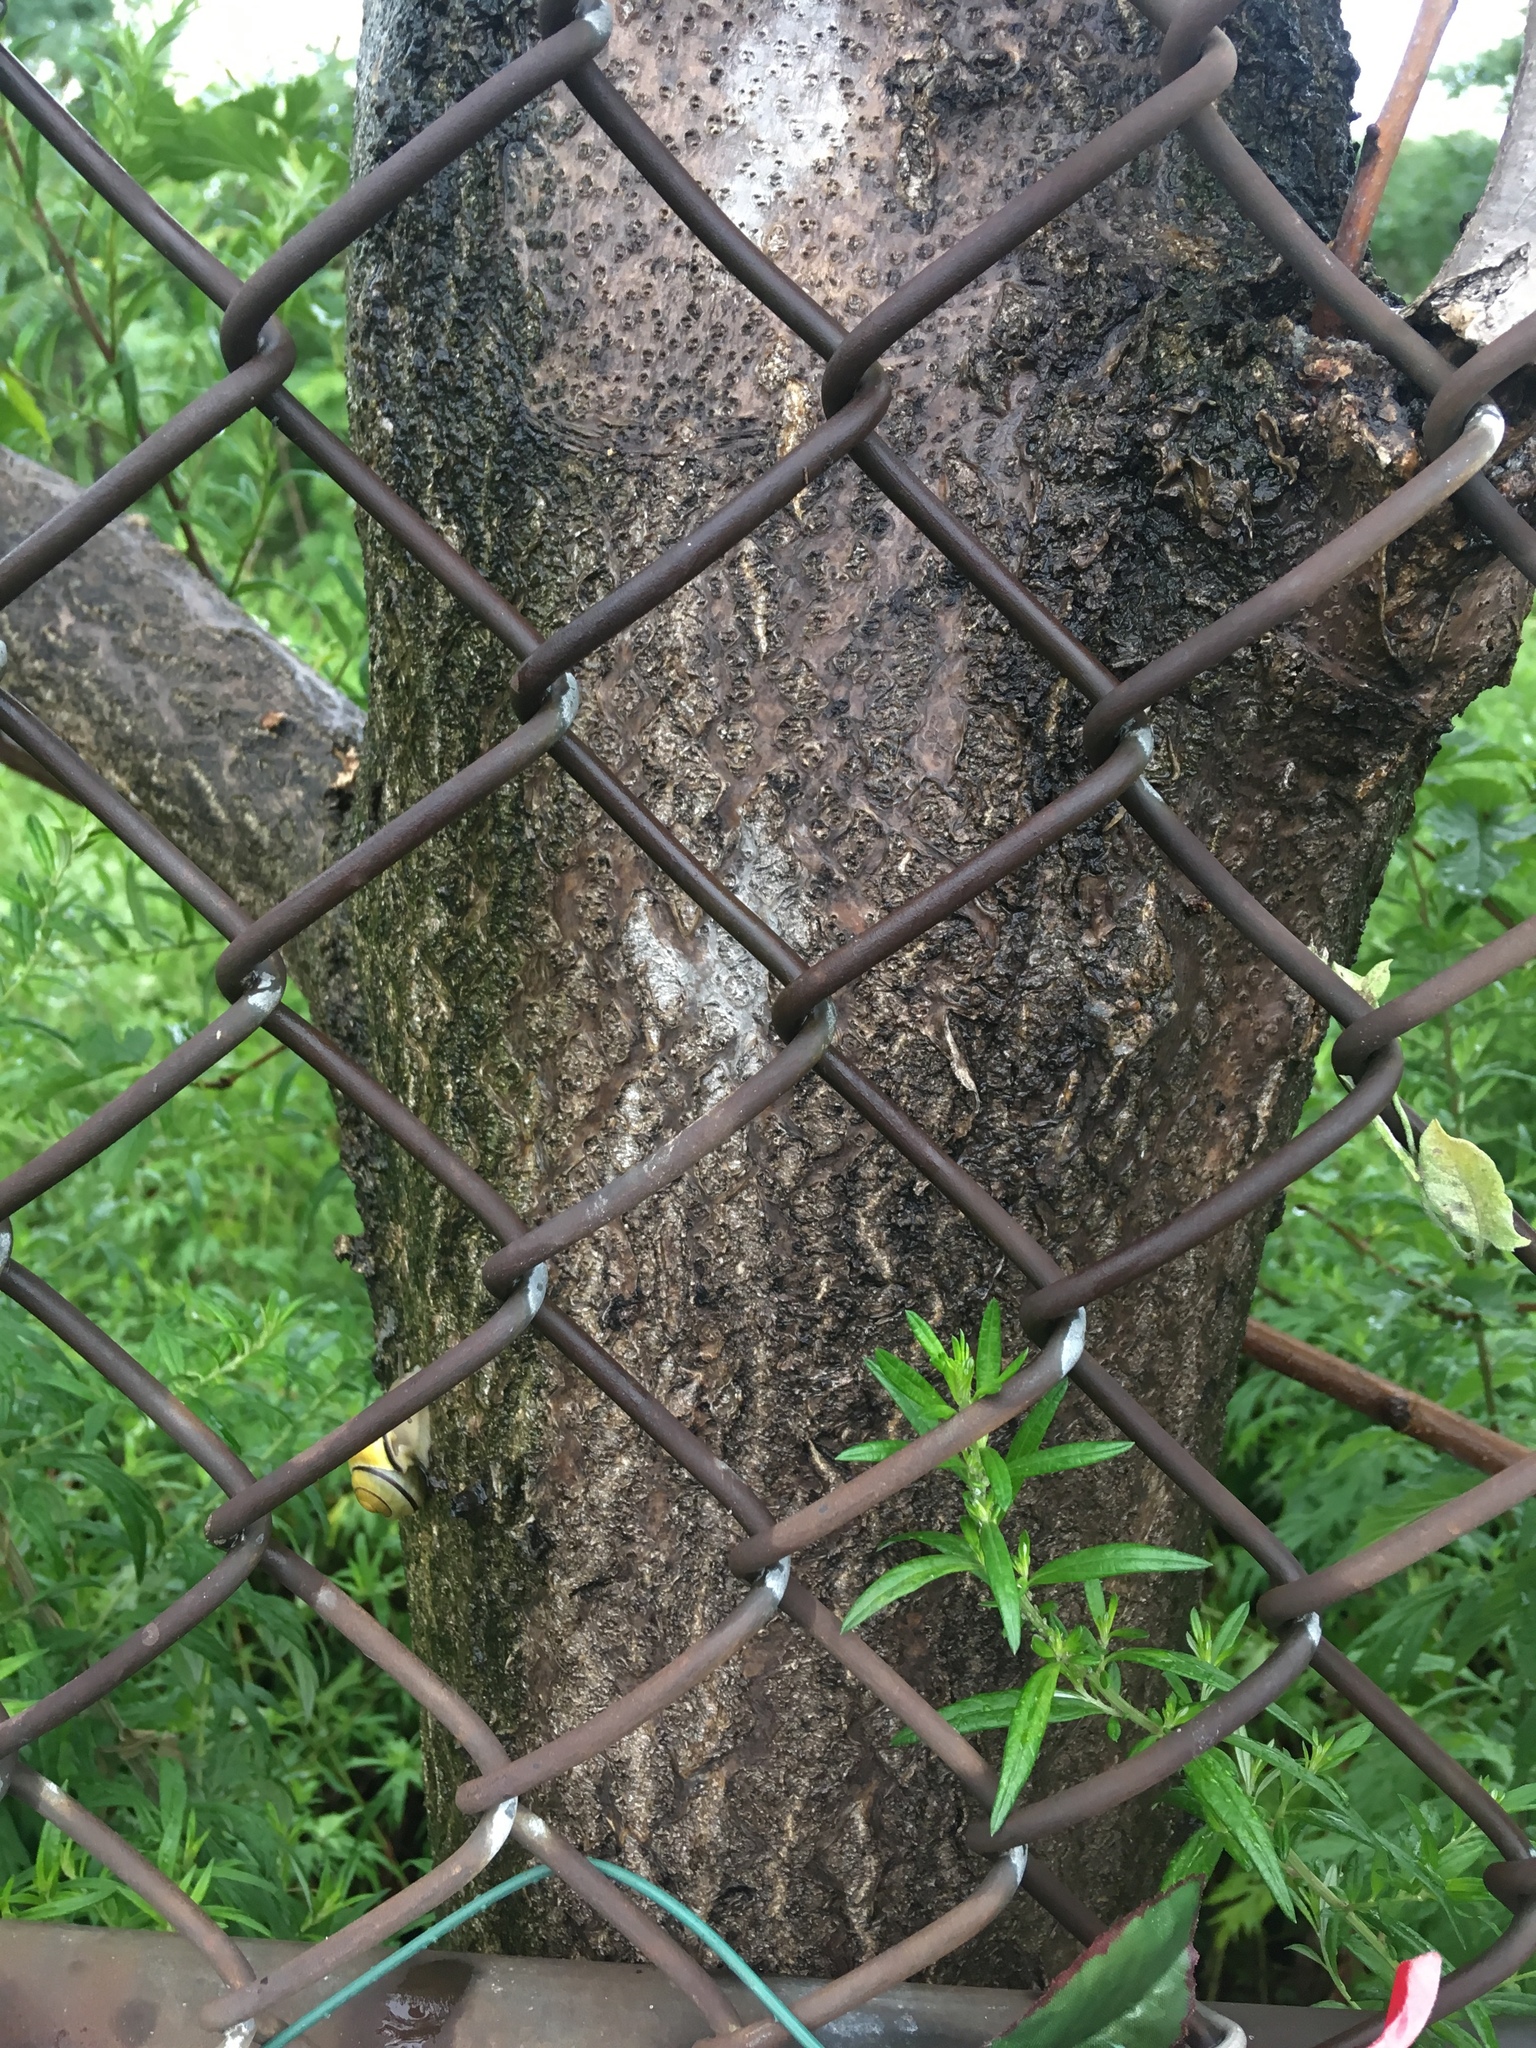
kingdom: Plantae
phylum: Tracheophyta
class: Magnoliopsida
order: Sapindales
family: Simaroubaceae
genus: Ailanthus
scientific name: Ailanthus altissima
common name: Tree-of-heaven
